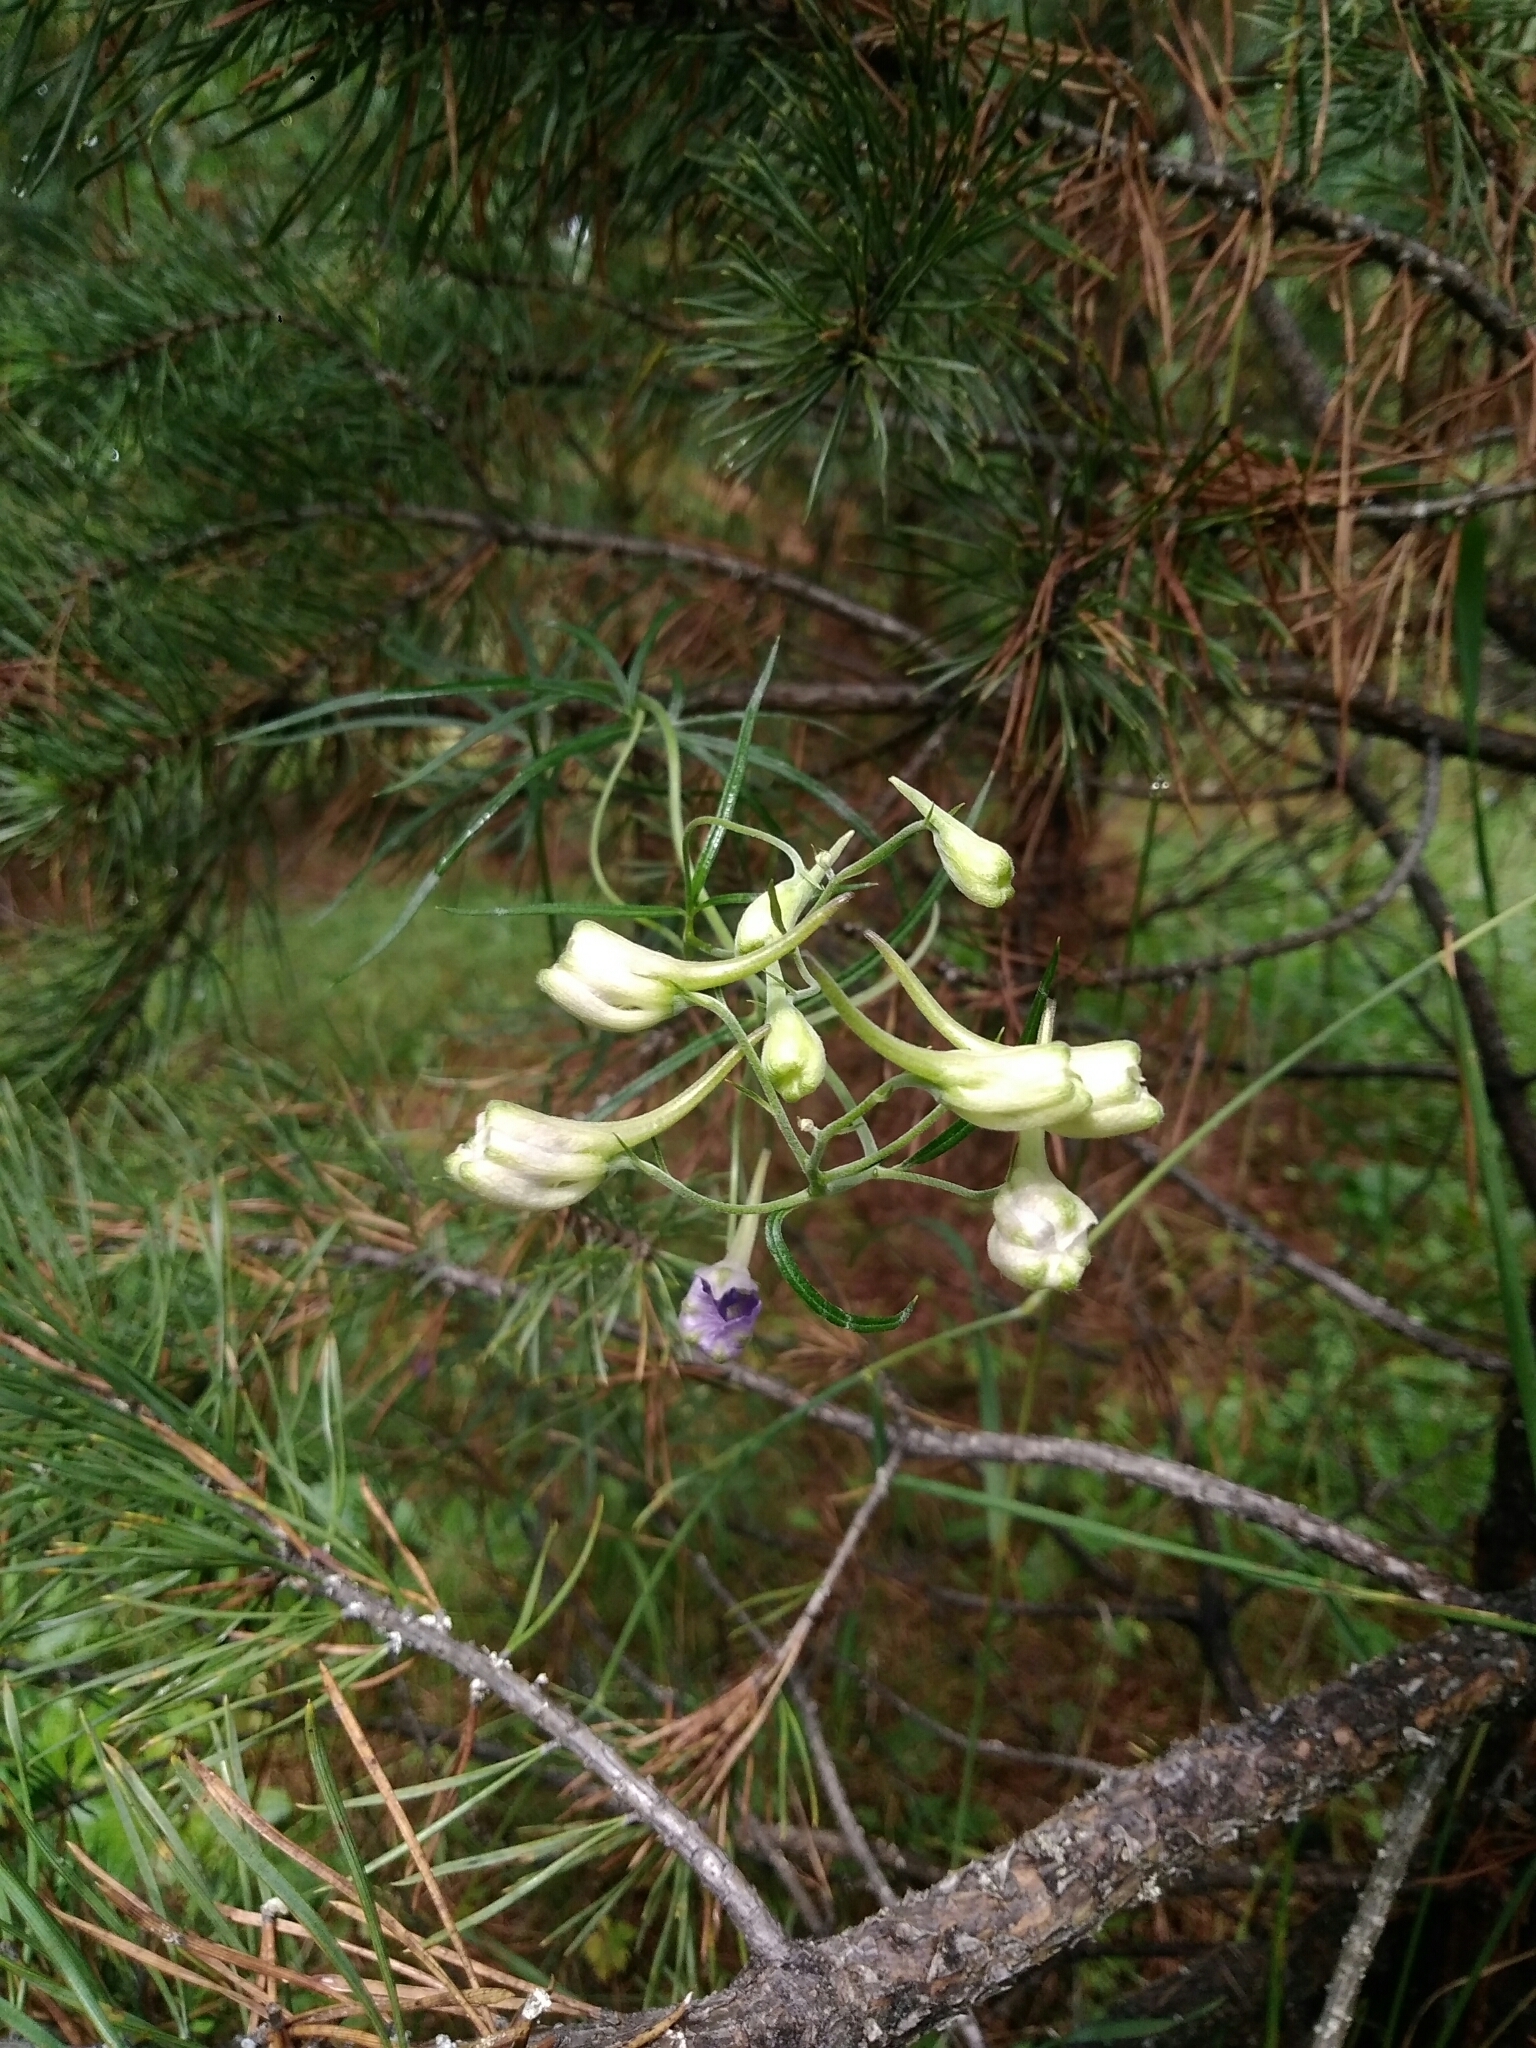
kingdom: Plantae
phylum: Tracheophyta
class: Magnoliopsida
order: Ranunculales
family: Ranunculaceae
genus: Delphinium
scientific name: Delphinium grandiflorum
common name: Siberian larkspur
